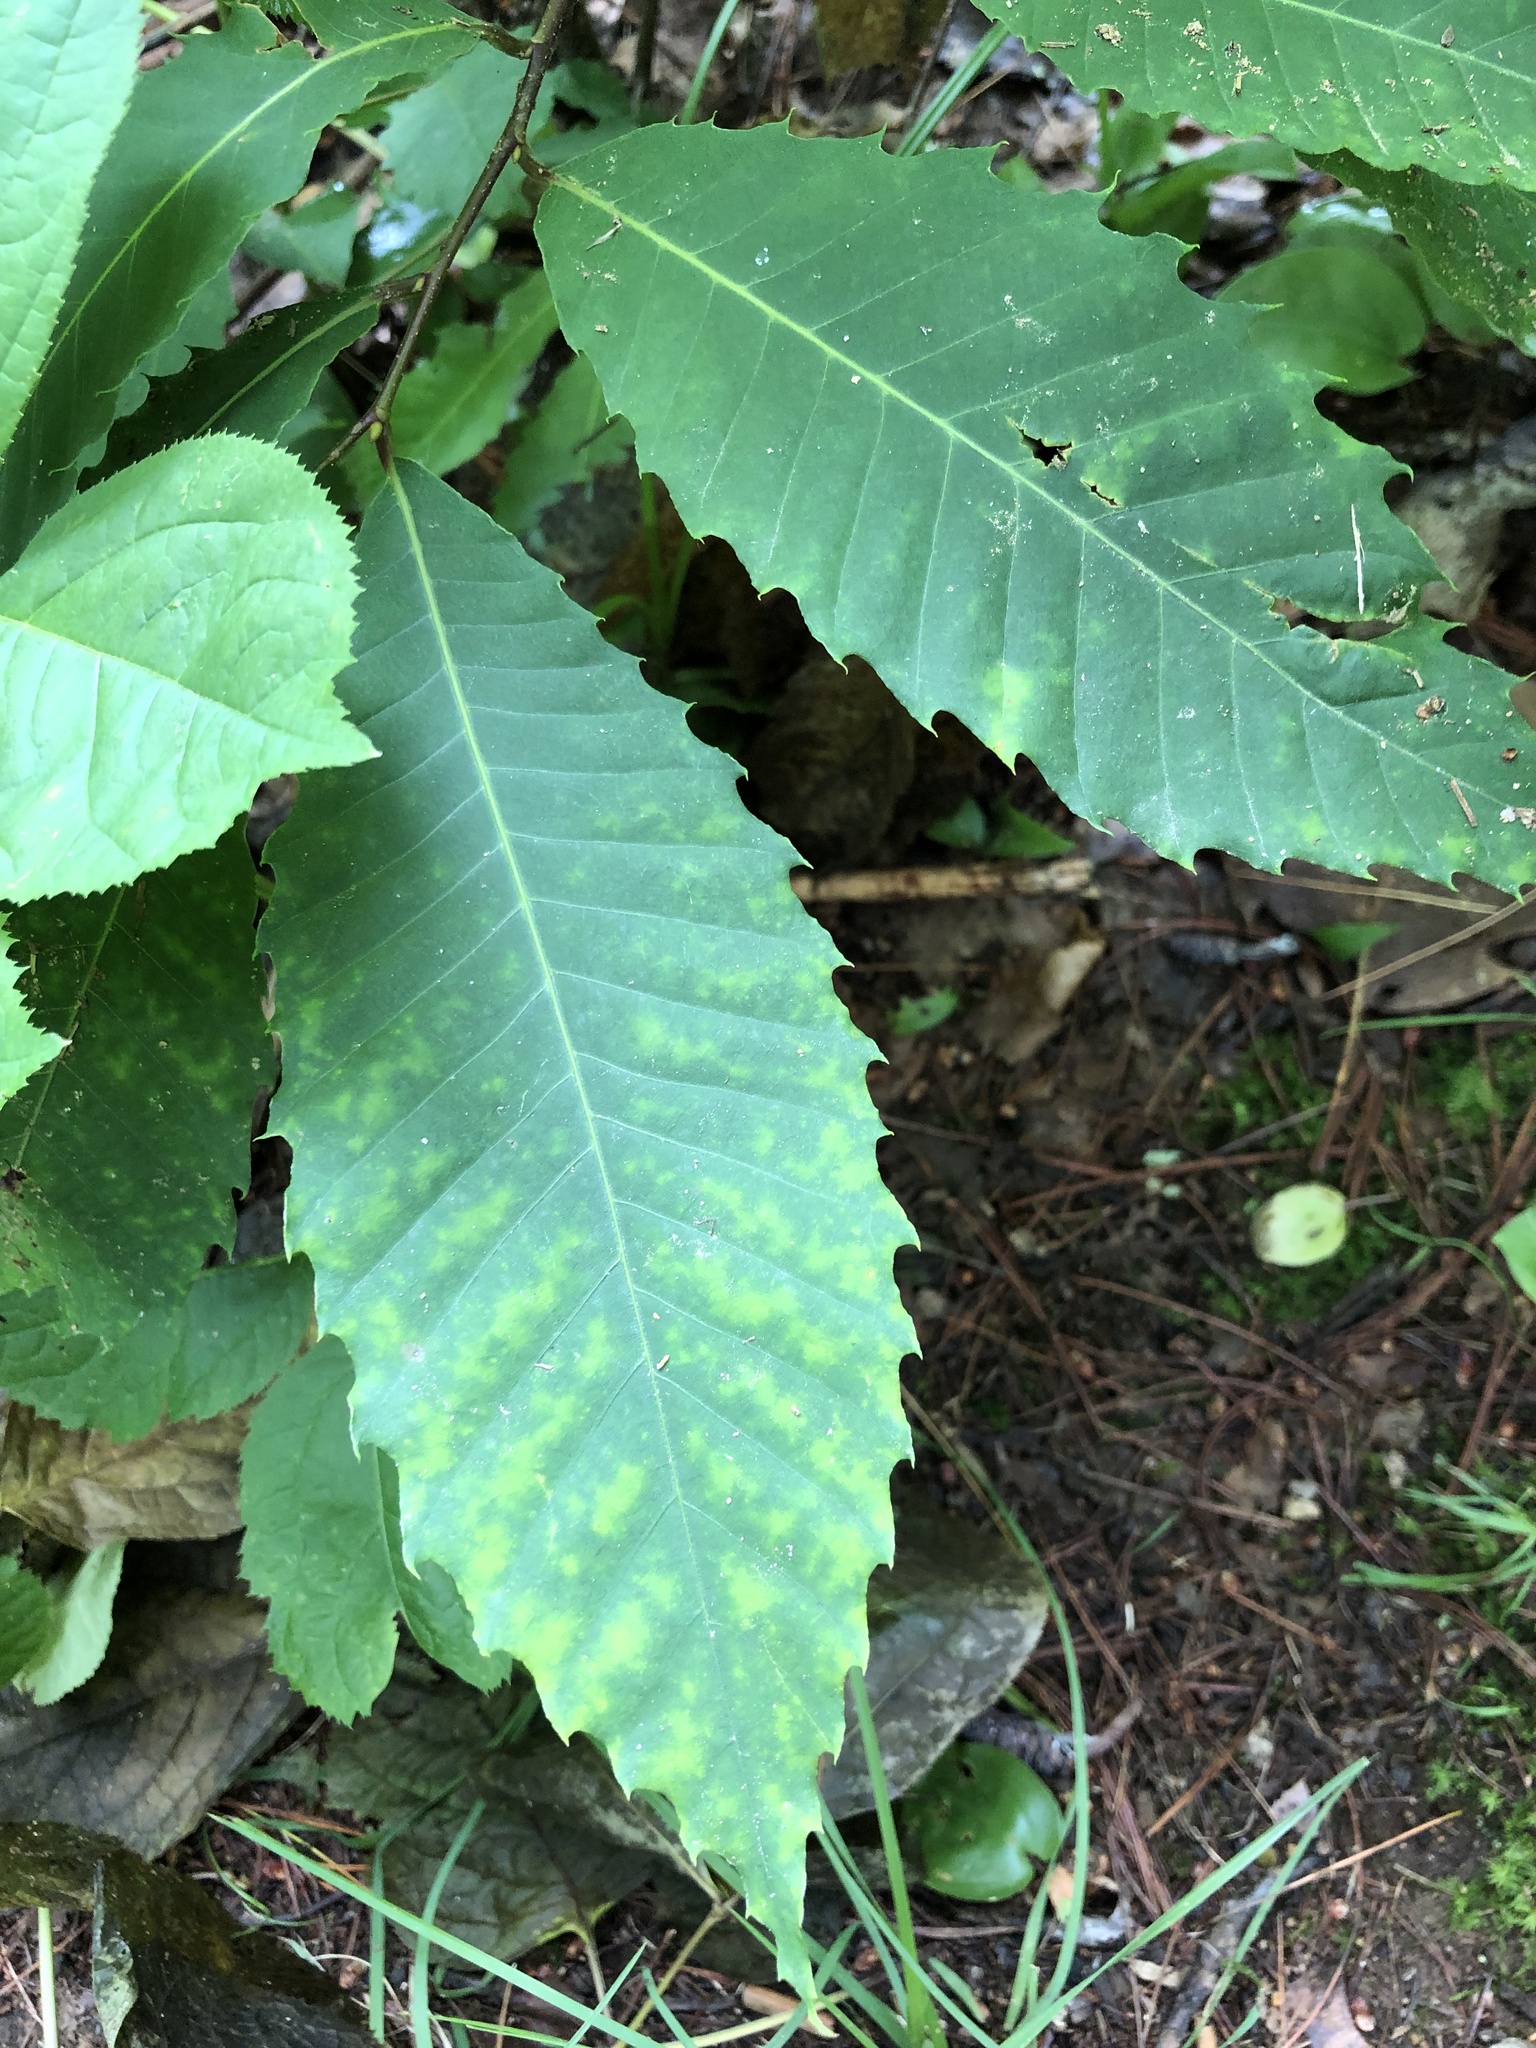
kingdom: Plantae
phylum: Tracheophyta
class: Magnoliopsida
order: Fagales
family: Fagaceae
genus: Castanea
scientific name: Castanea dentata
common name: American chestnut
